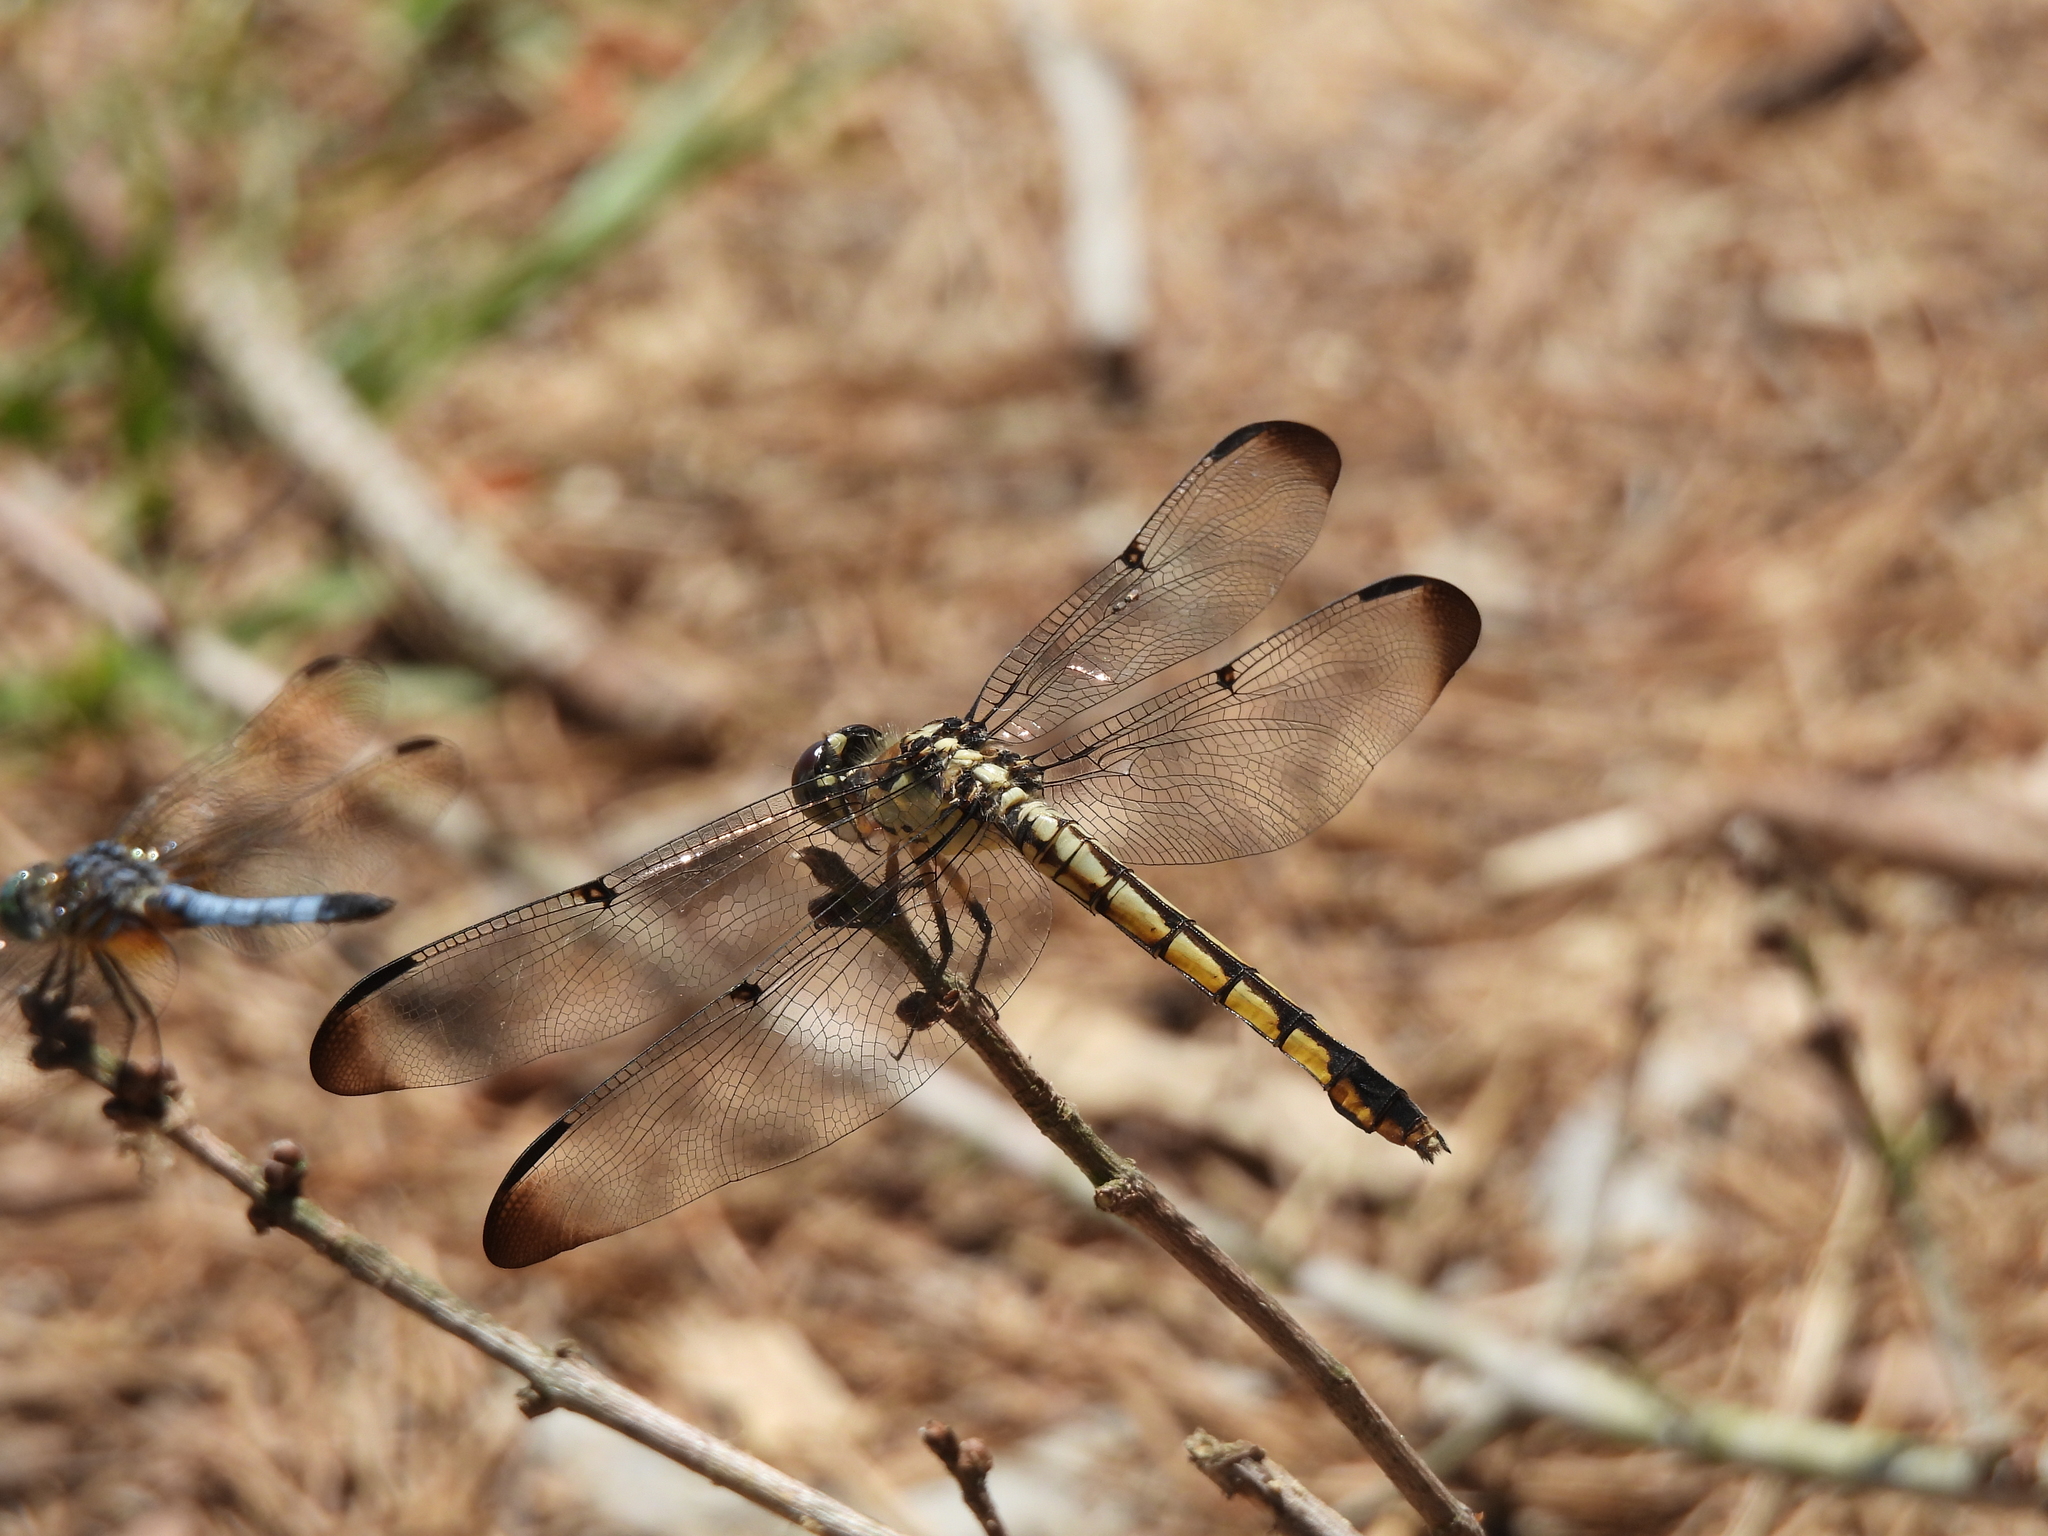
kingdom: Animalia
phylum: Arthropoda
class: Insecta
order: Odonata
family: Libellulidae
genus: Libellula
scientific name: Libellula vibrans
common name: Great blue skimmer
